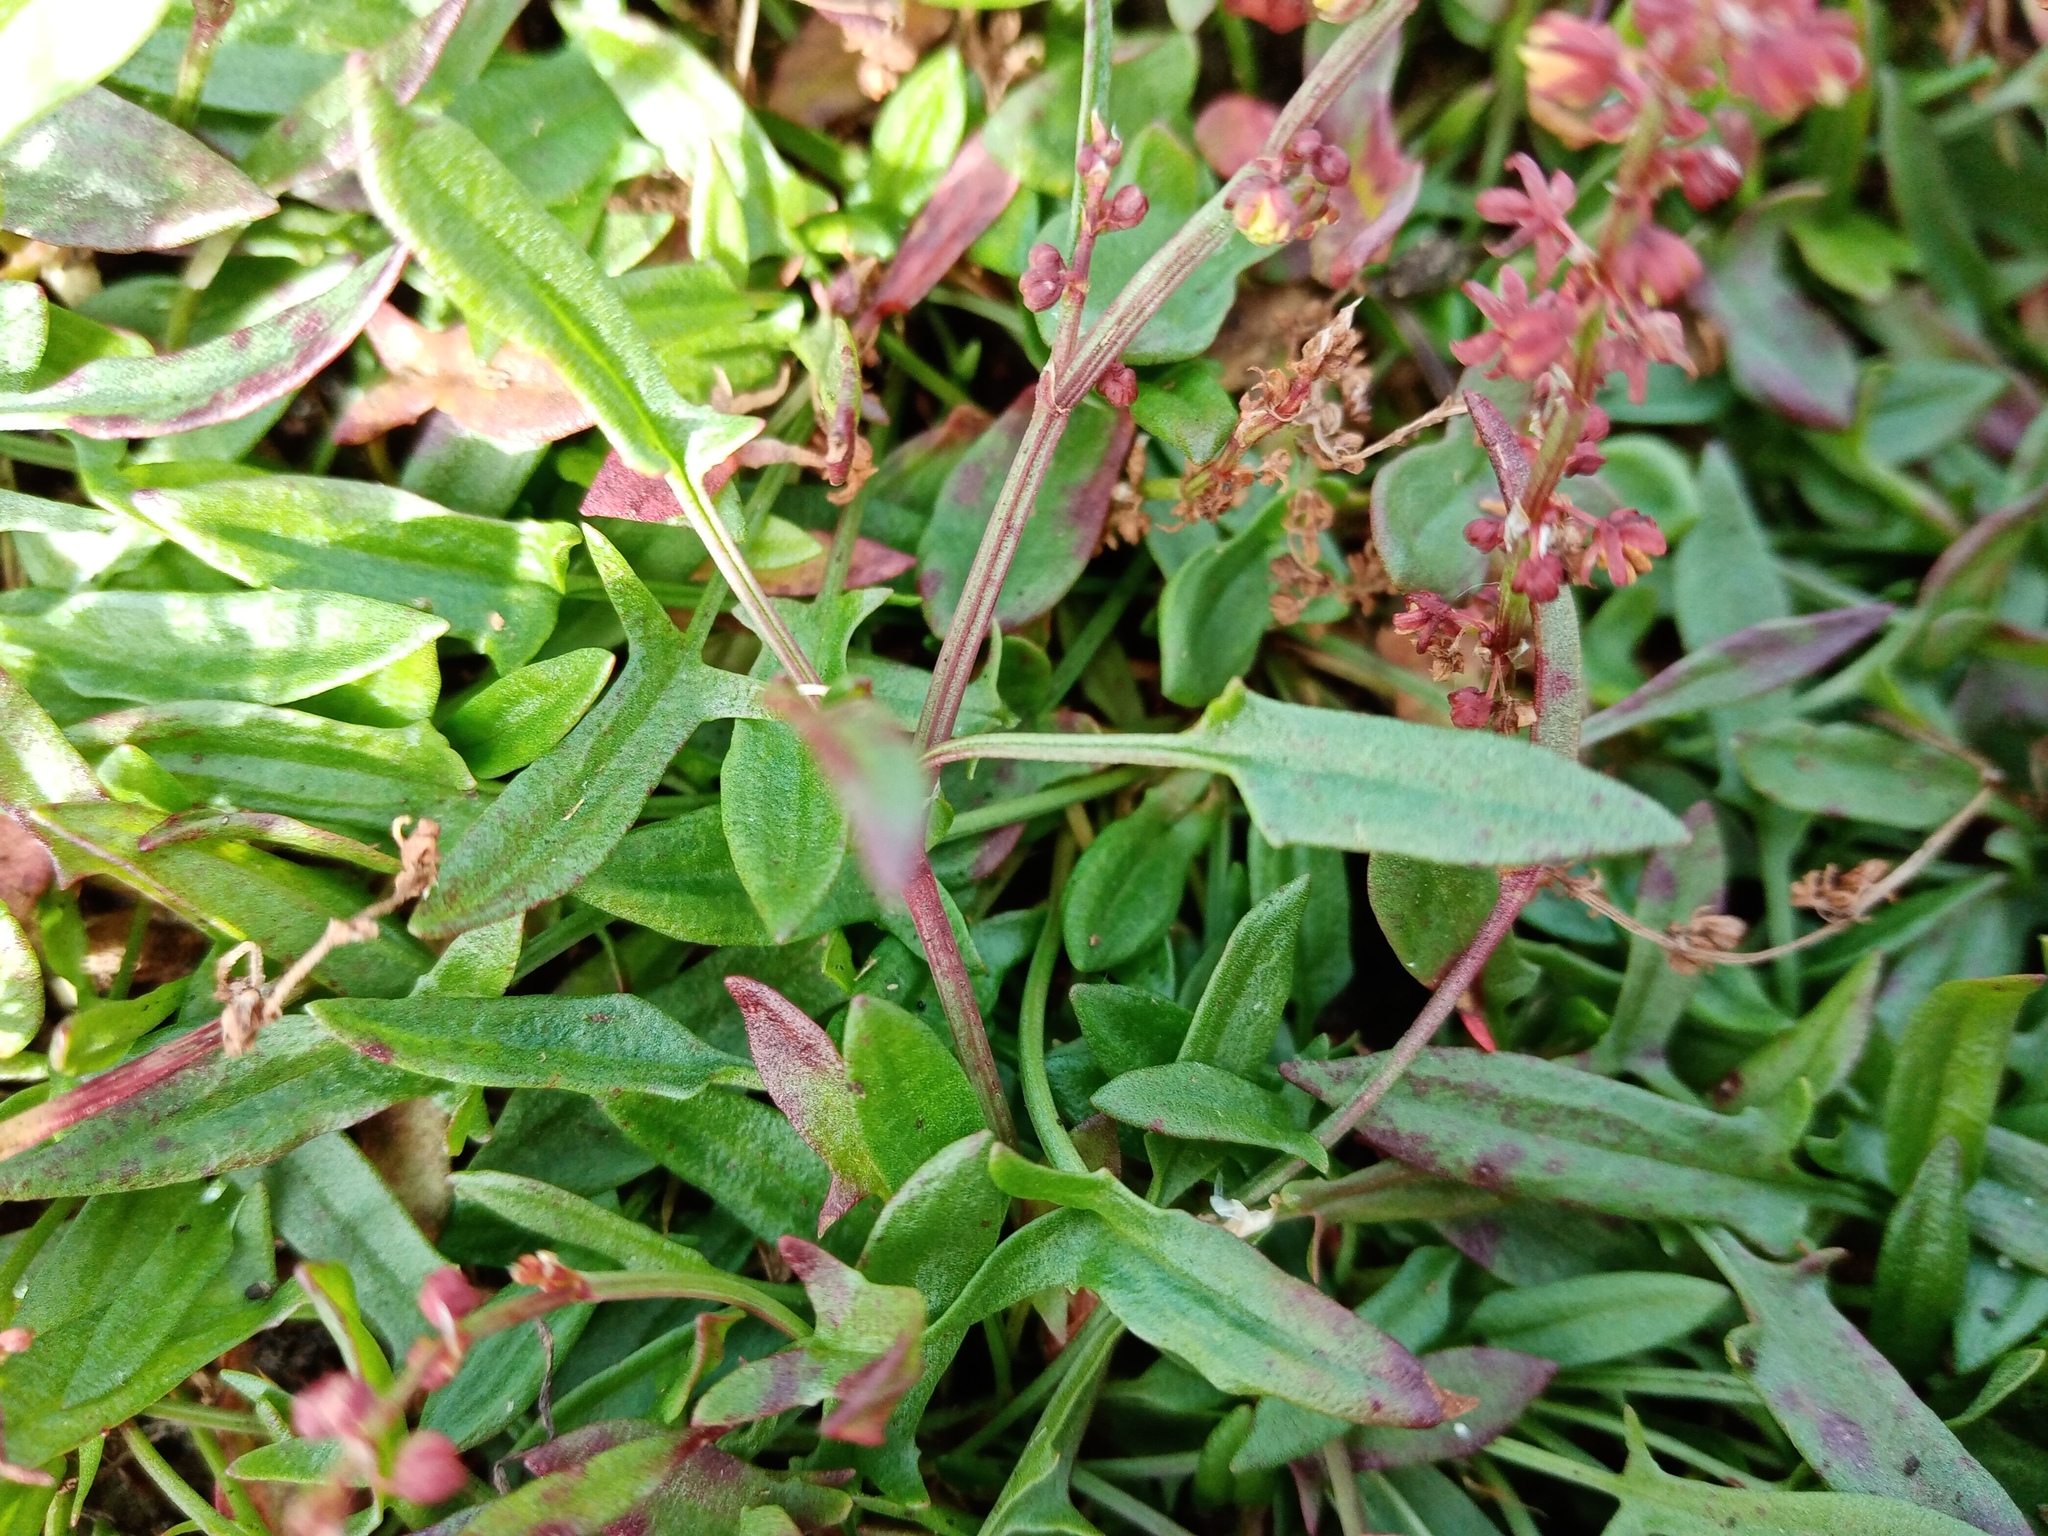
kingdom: Plantae
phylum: Tracheophyta
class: Magnoliopsida
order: Caryophyllales
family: Polygonaceae
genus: Rumex
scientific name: Rumex acetosella
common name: Common sheep sorrel
